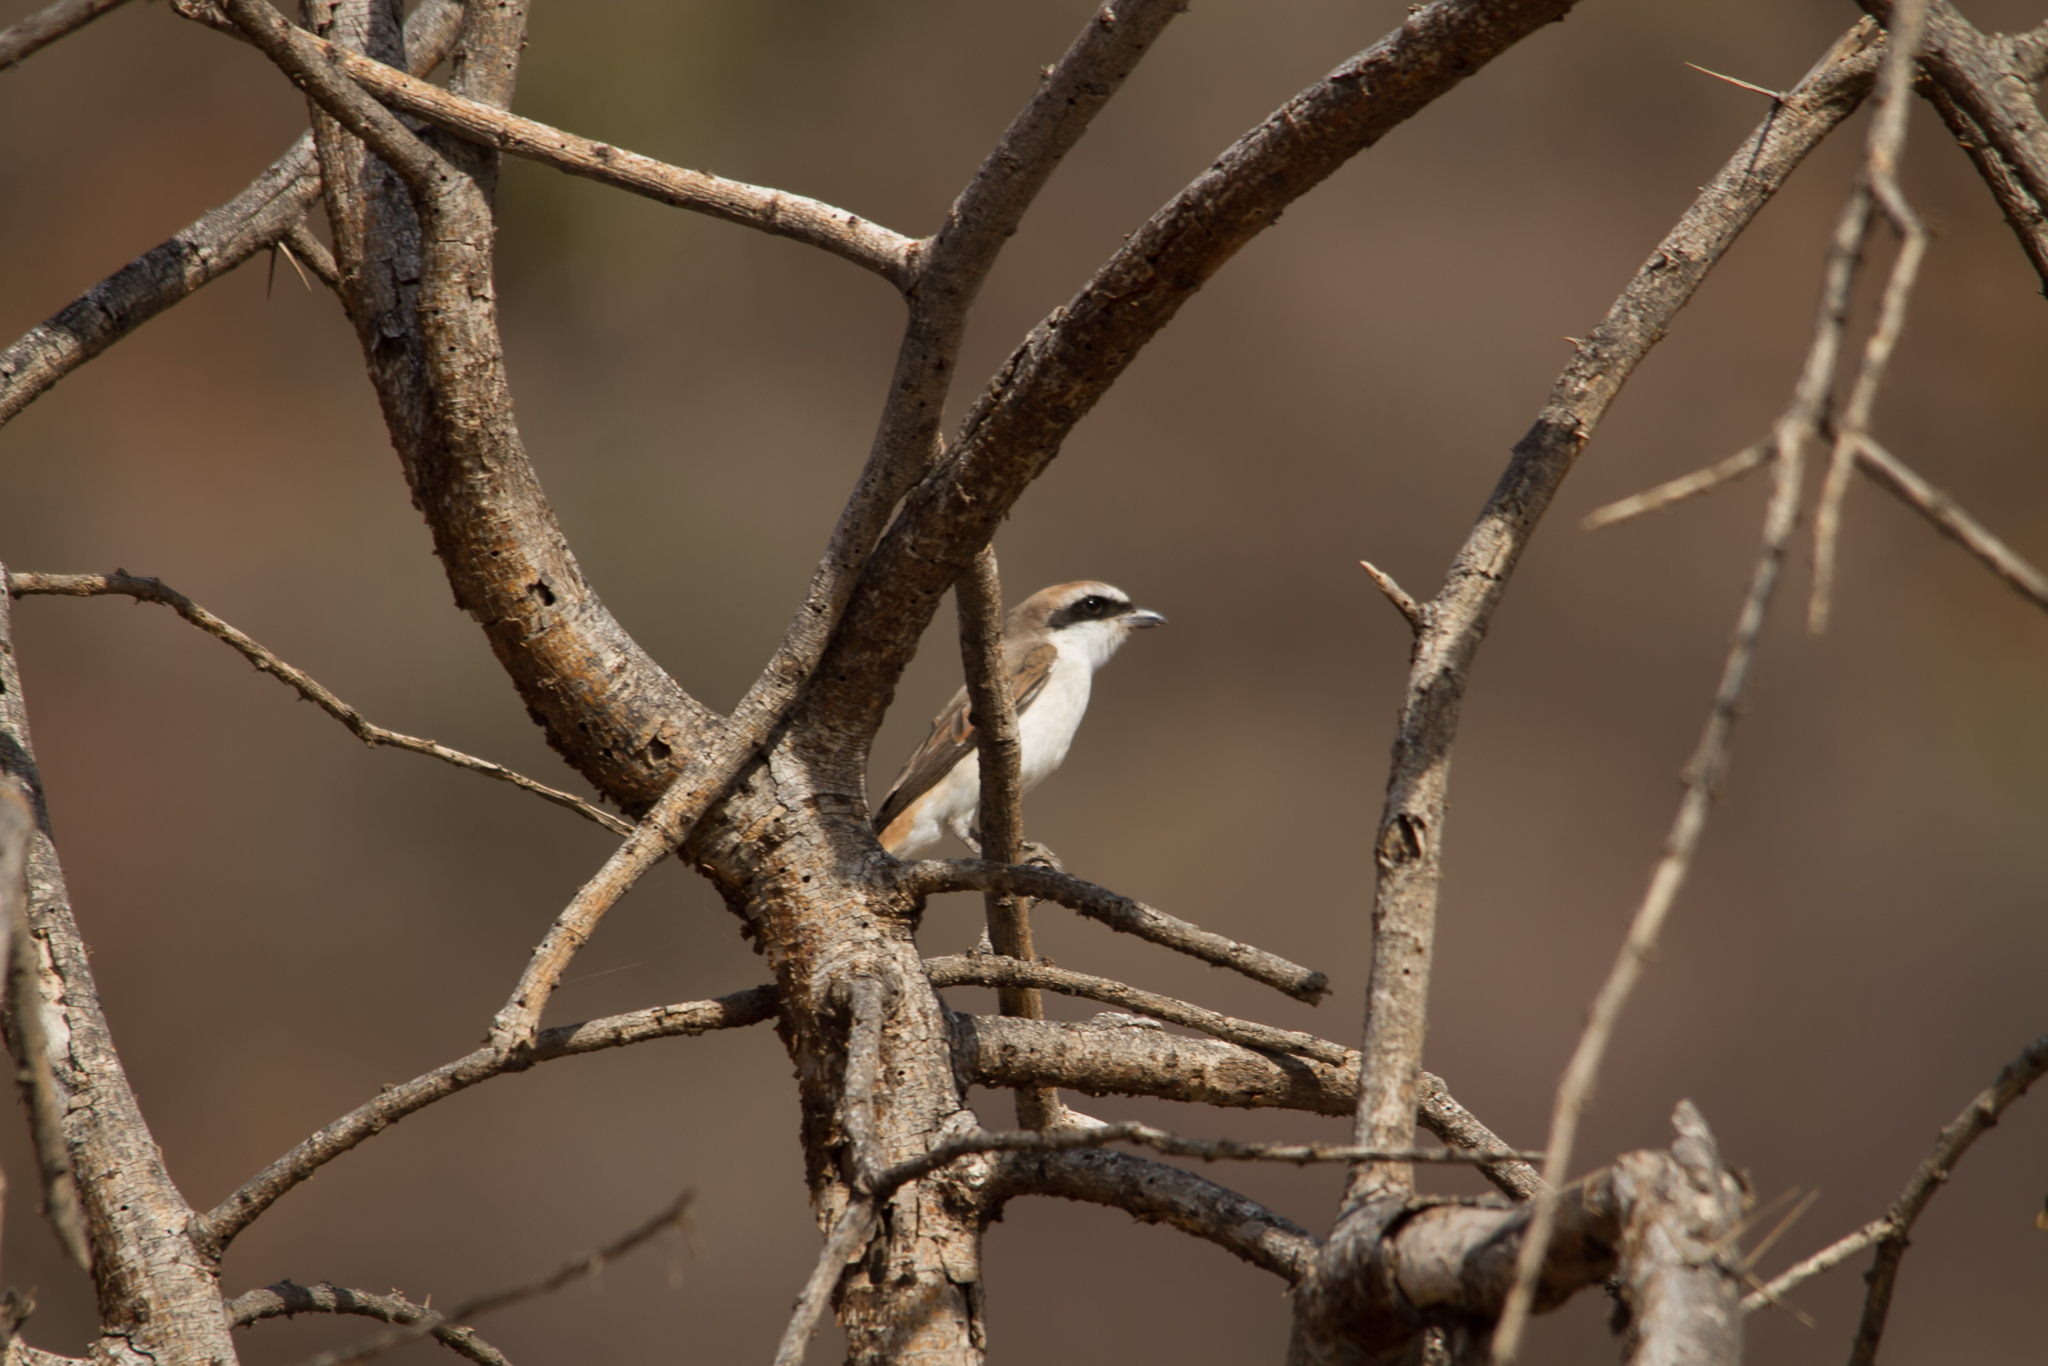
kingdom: Animalia
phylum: Chordata
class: Aves
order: Passeriformes
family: Laniidae
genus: Lanius
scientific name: Lanius phoenicuroides
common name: Red-tailed shrike
